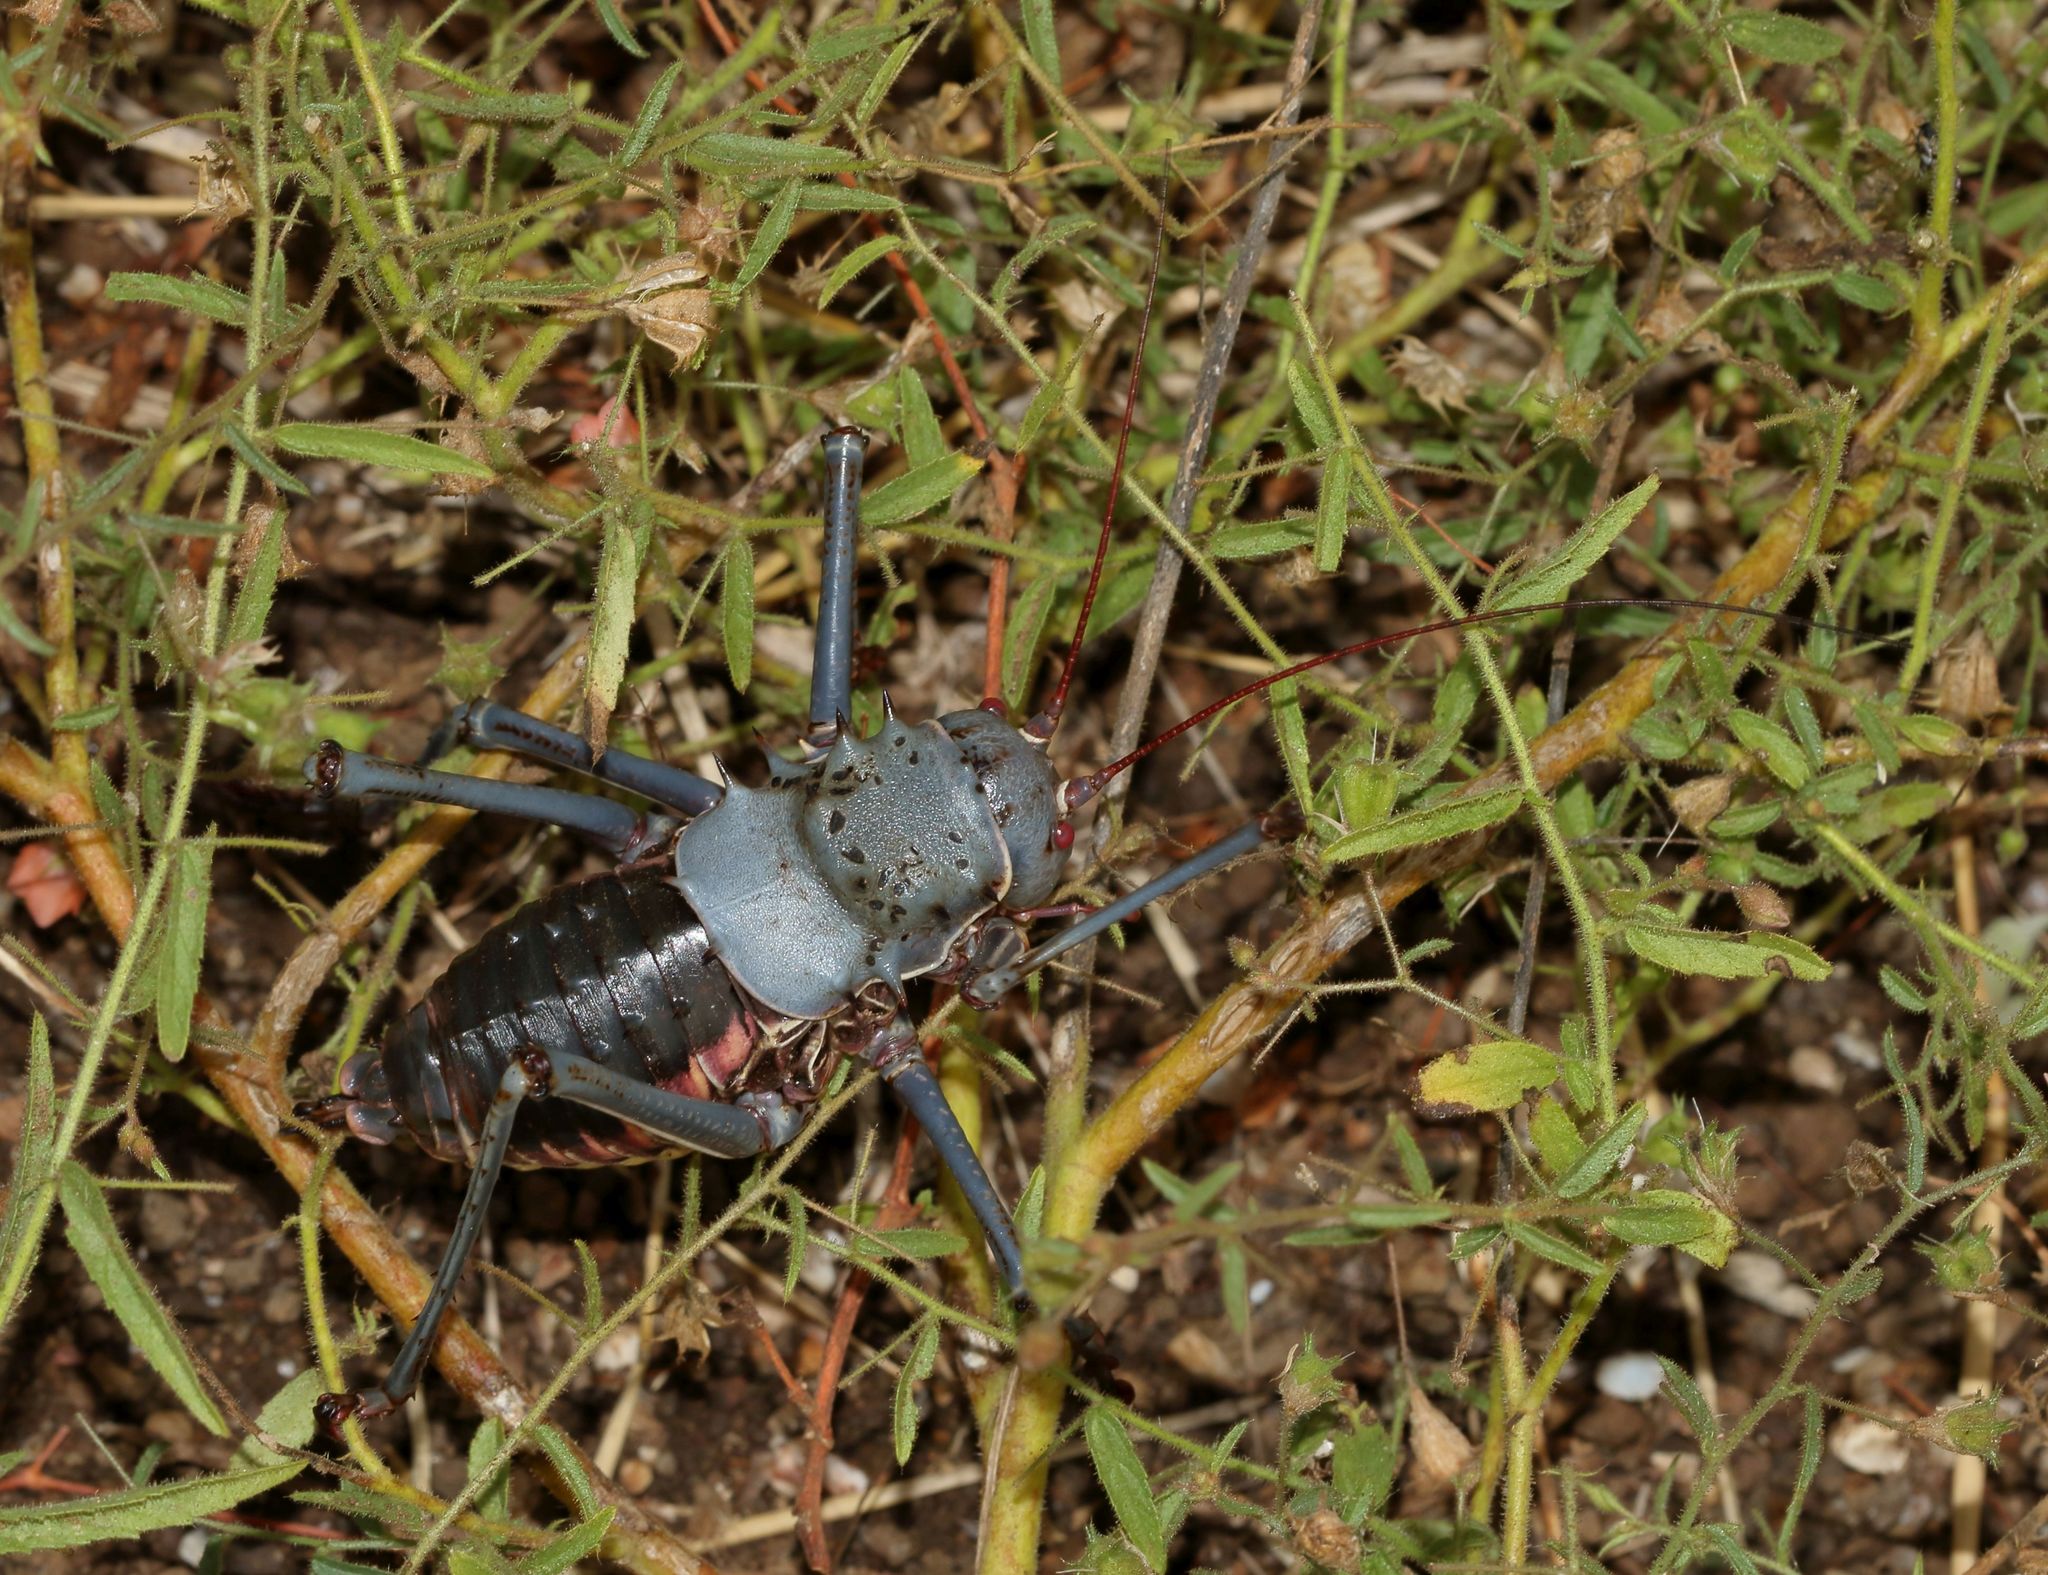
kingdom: Animalia
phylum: Arthropoda
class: Insecta
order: Orthoptera
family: Tettigoniidae
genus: Acanthoplus
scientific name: Acanthoplus discoidalis
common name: Armoured katydid
